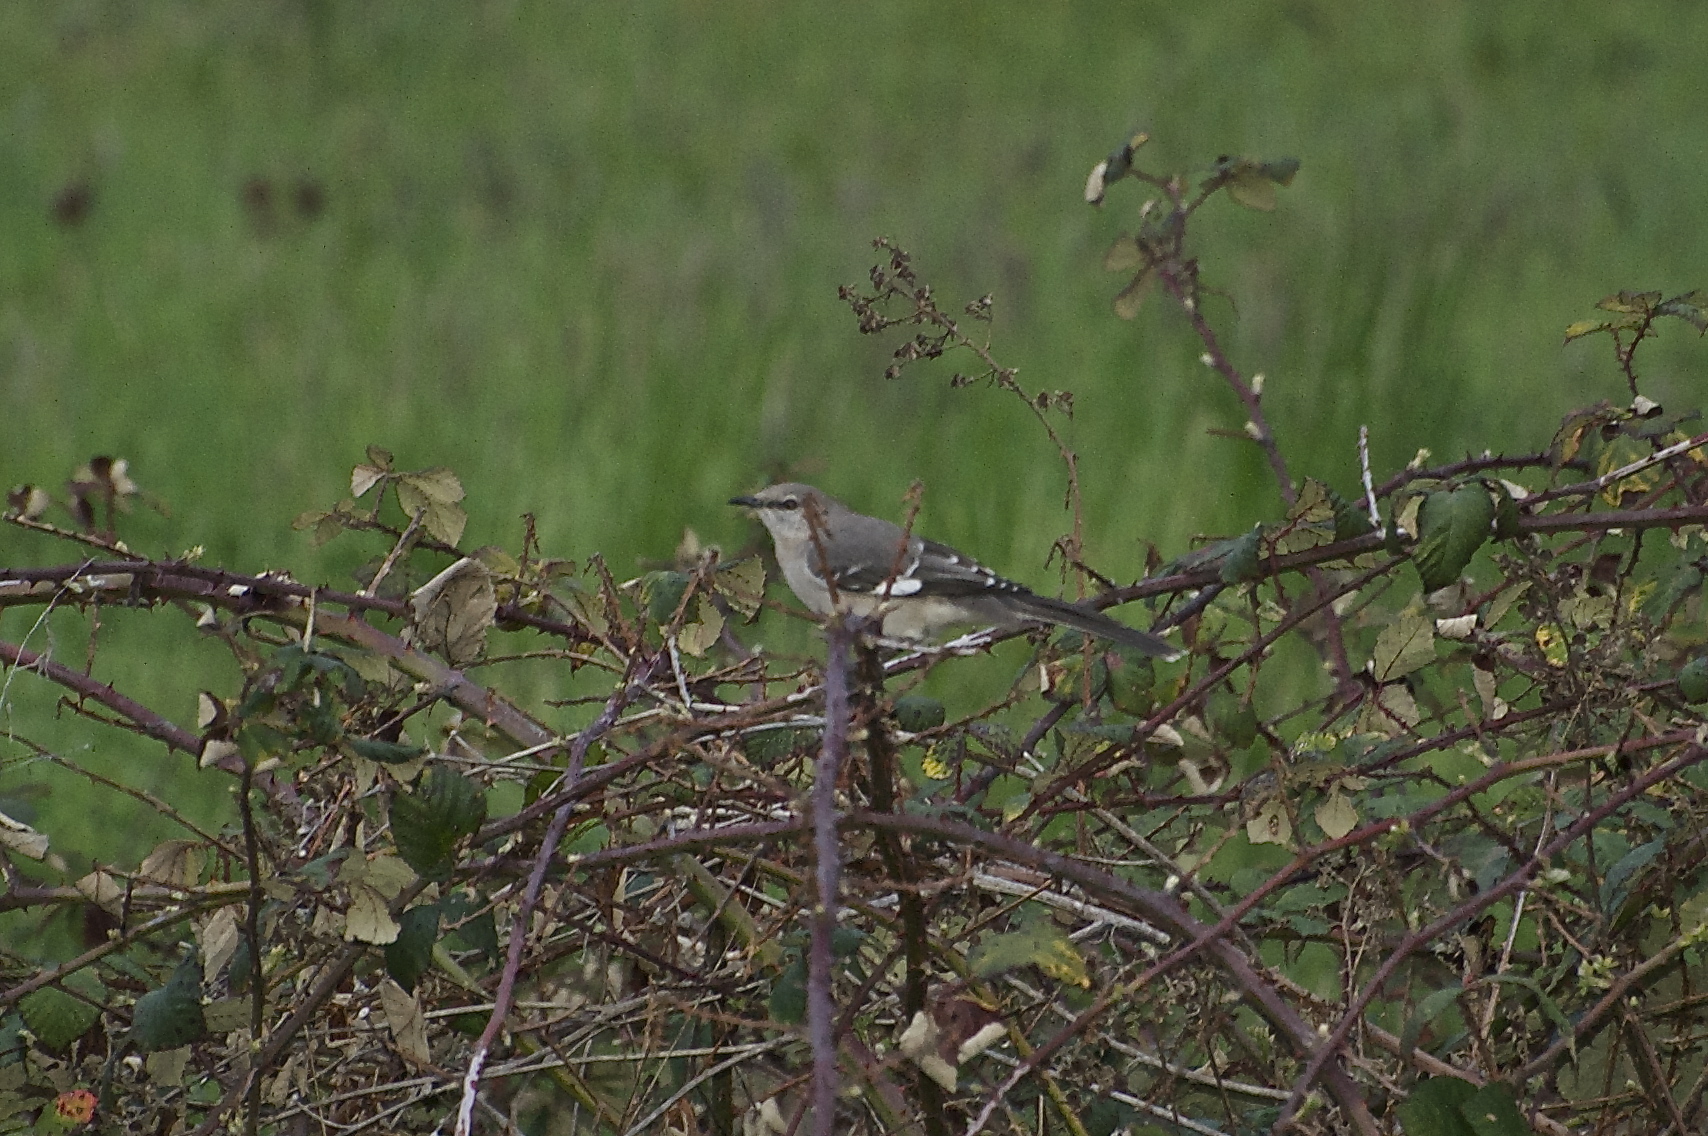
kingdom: Animalia
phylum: Chordata
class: Aves
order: Passeriformes
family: Mimidae
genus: Mimus
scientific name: Mimus polyglottos
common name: Northern mockingbird
